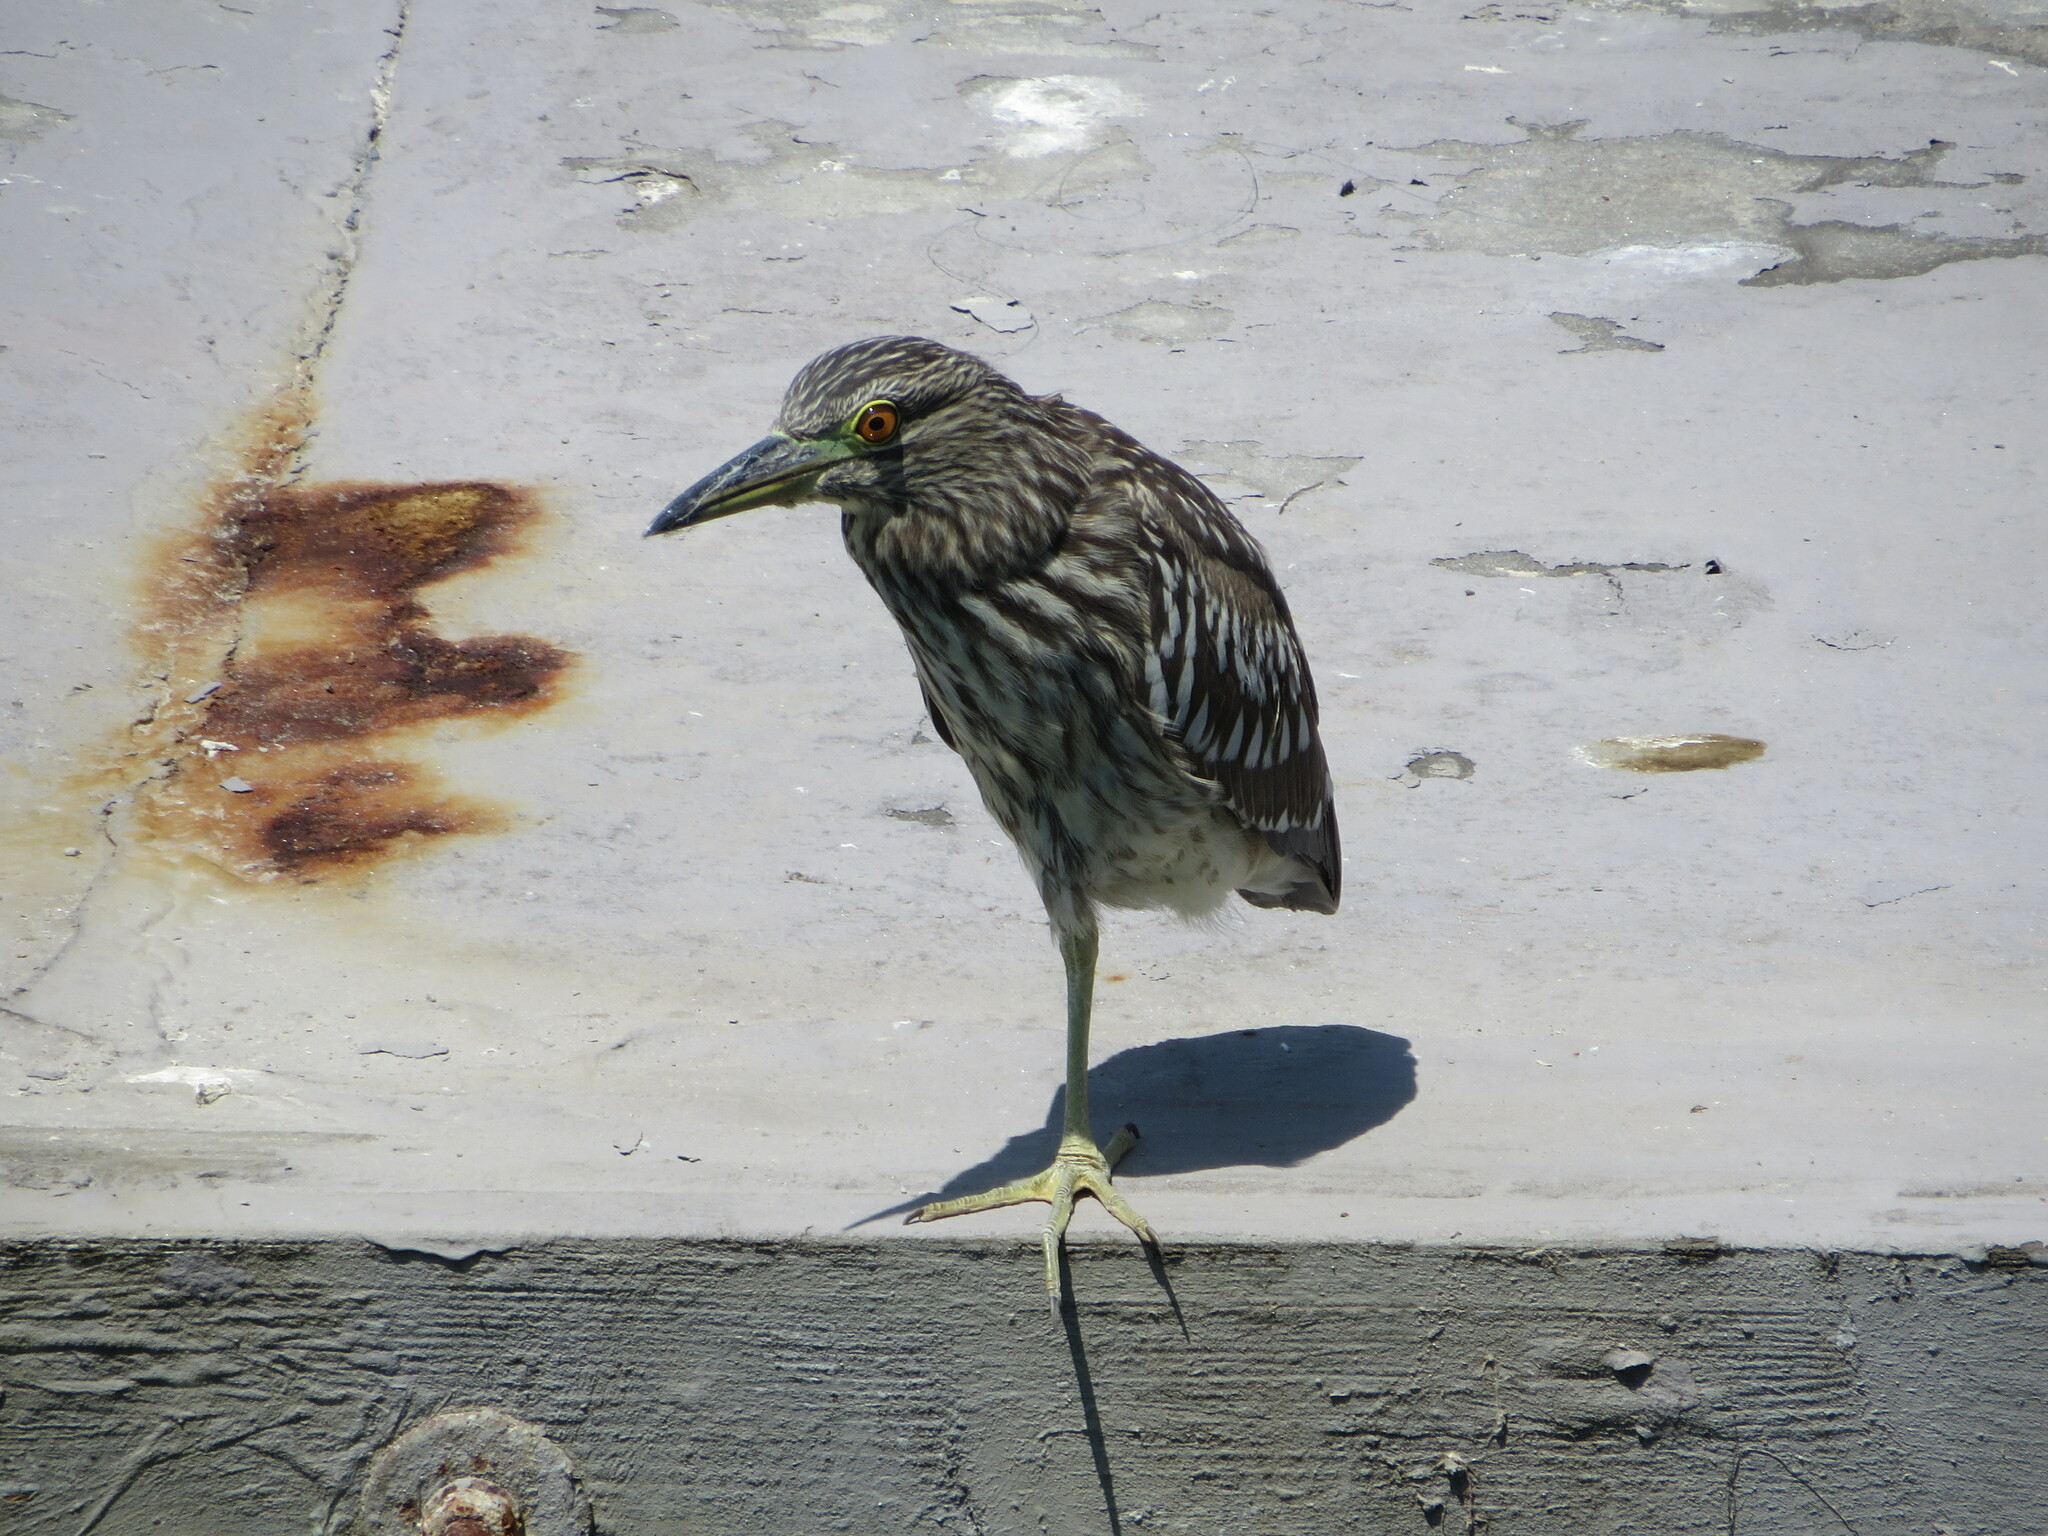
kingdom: Animalia
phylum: Chordata
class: Aves
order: Pelecaniformes
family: Ardeidae
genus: Nycticorax
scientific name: Nycticorax nycticorax
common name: Black-crowned night heron
